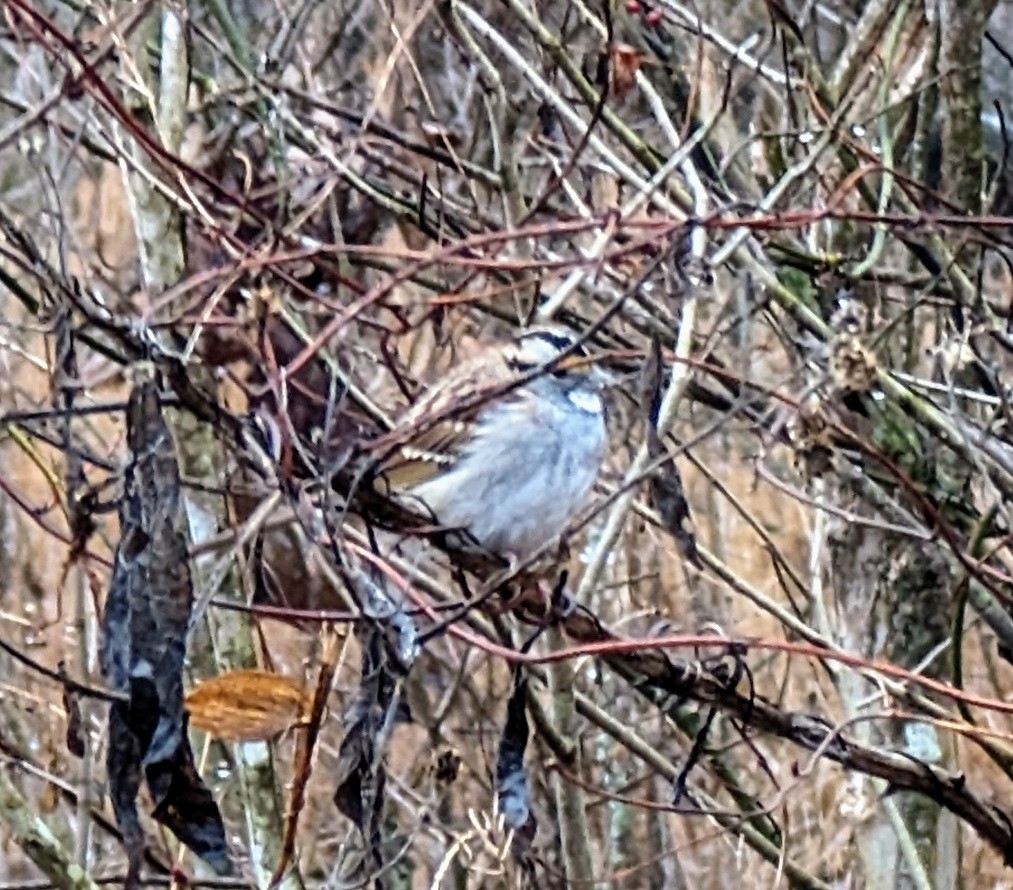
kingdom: Animalia
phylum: Chordata
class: Aves
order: Passeriformes
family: Passerellidae
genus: Zonotrichia
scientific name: Zonotrichia albicollis
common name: White-throated sparrow
